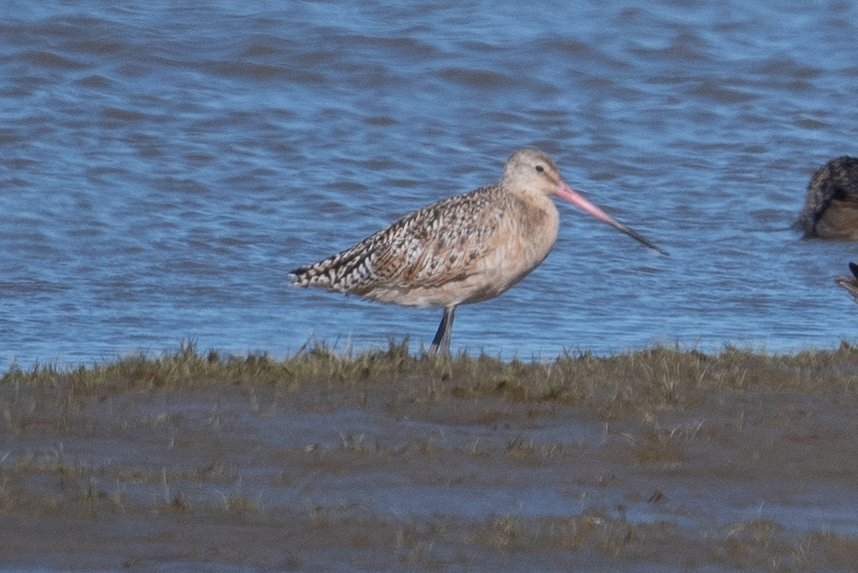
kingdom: Animalia
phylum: Chordata
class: Aves
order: Charadriiformes
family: Scolopacidae
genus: Limosa
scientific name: Limosa fedoa
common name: Marbled godwit
